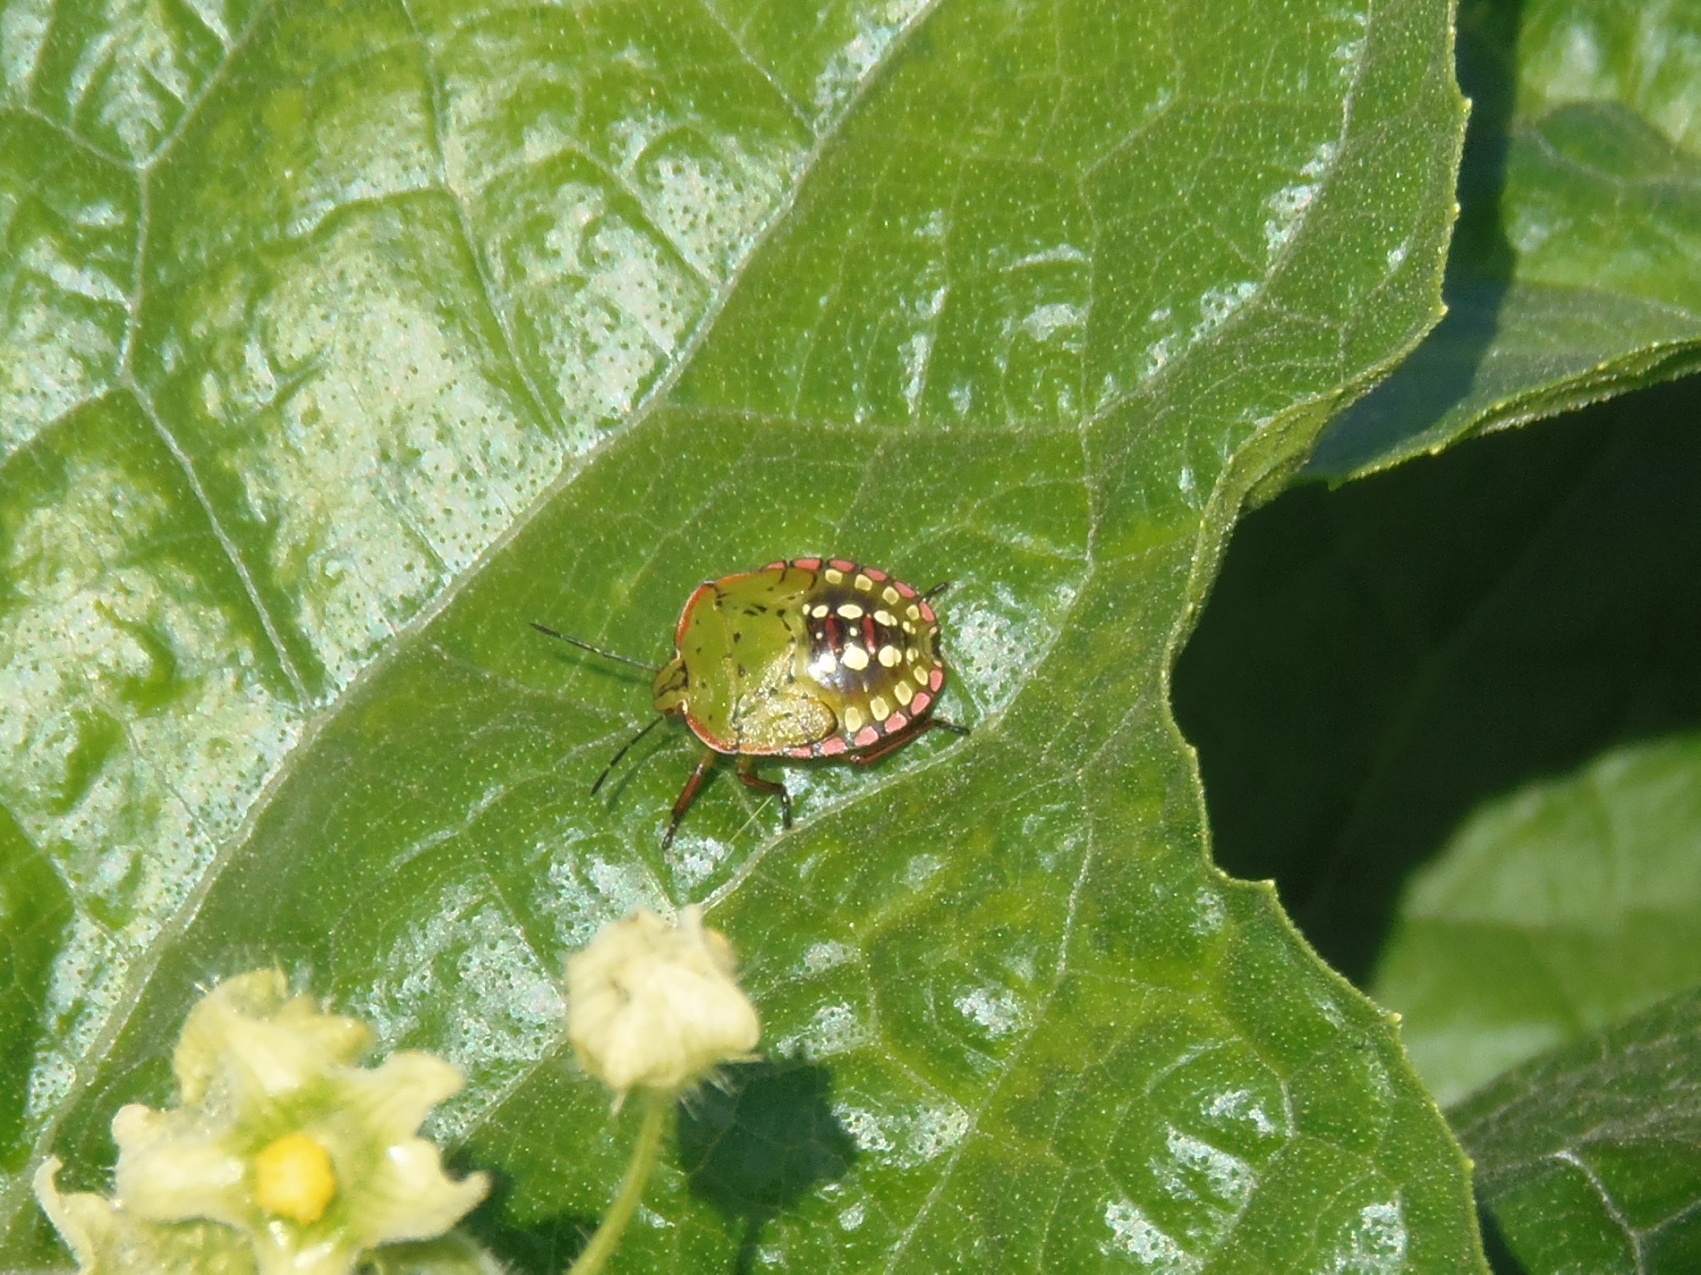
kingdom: Animalia
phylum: Arthropoda
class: Insecta
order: Hemiptera
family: Pentatomidae
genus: Nezara
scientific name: Nezara viridula
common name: Southern green stink bug
